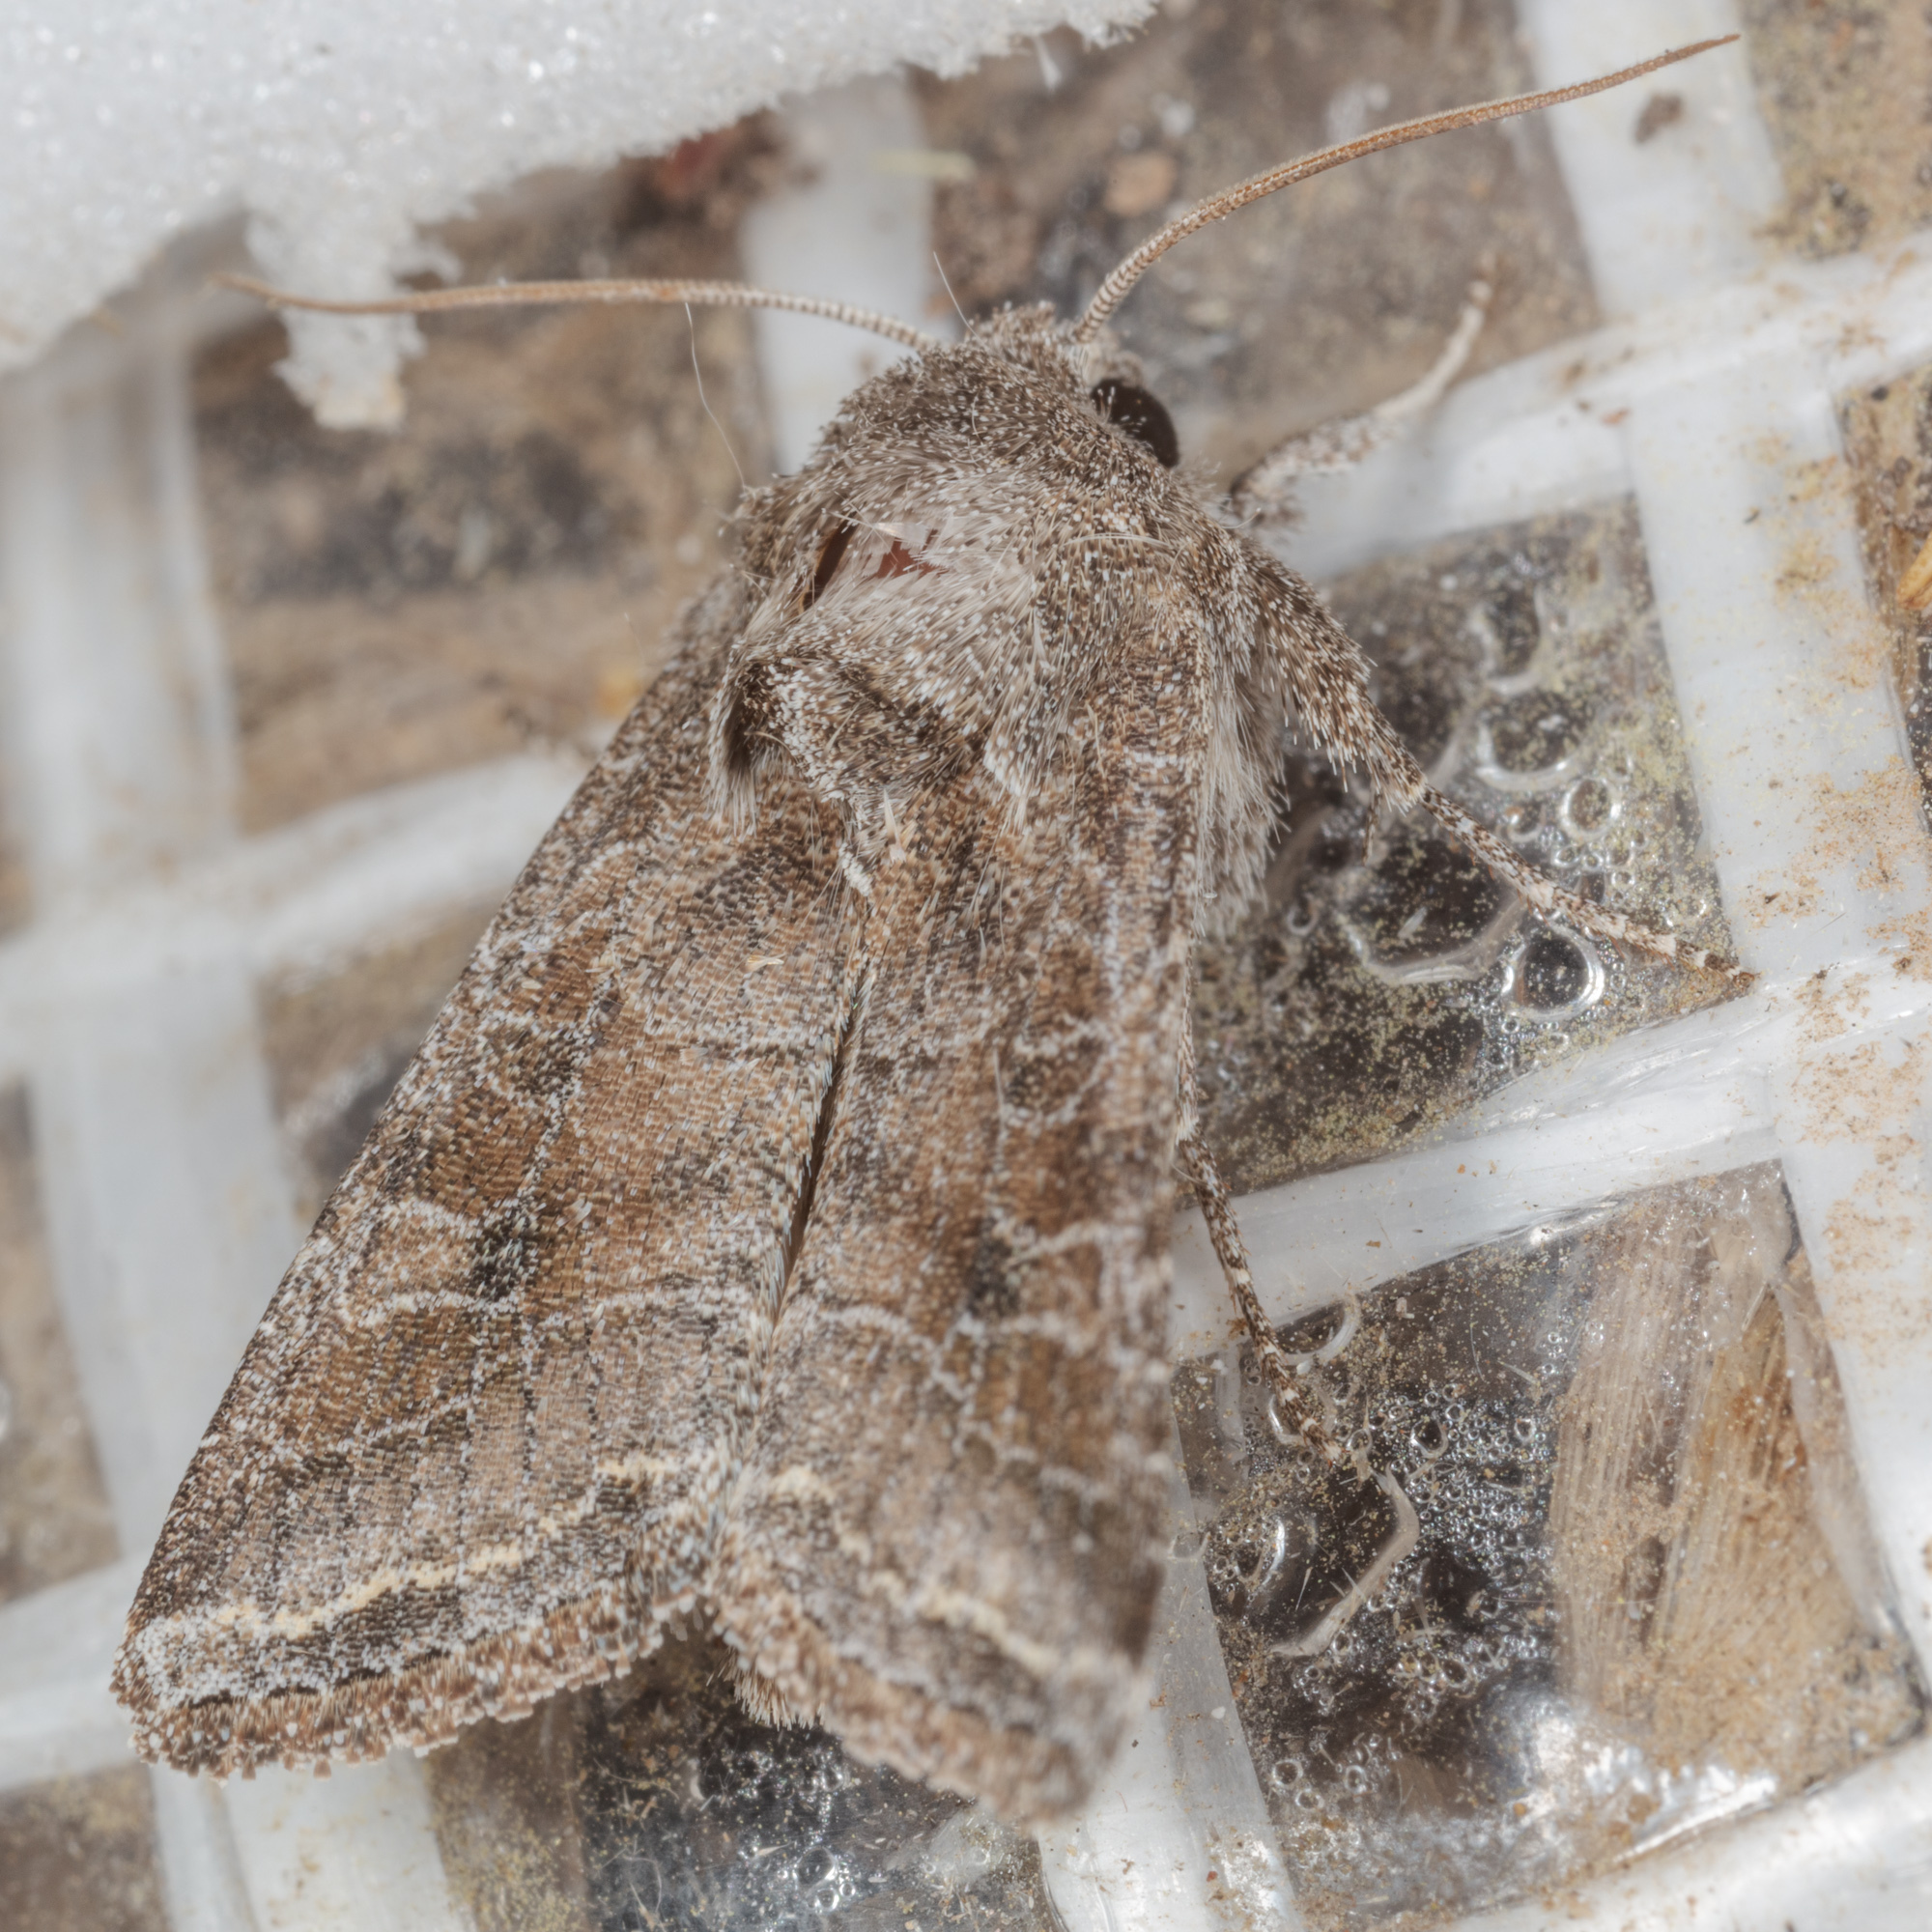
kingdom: Animalia
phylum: Arthropoda
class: Insecta
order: Lepidoptera
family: Noctuidae
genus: Lacinipolia
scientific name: Lacinipolia erecta
